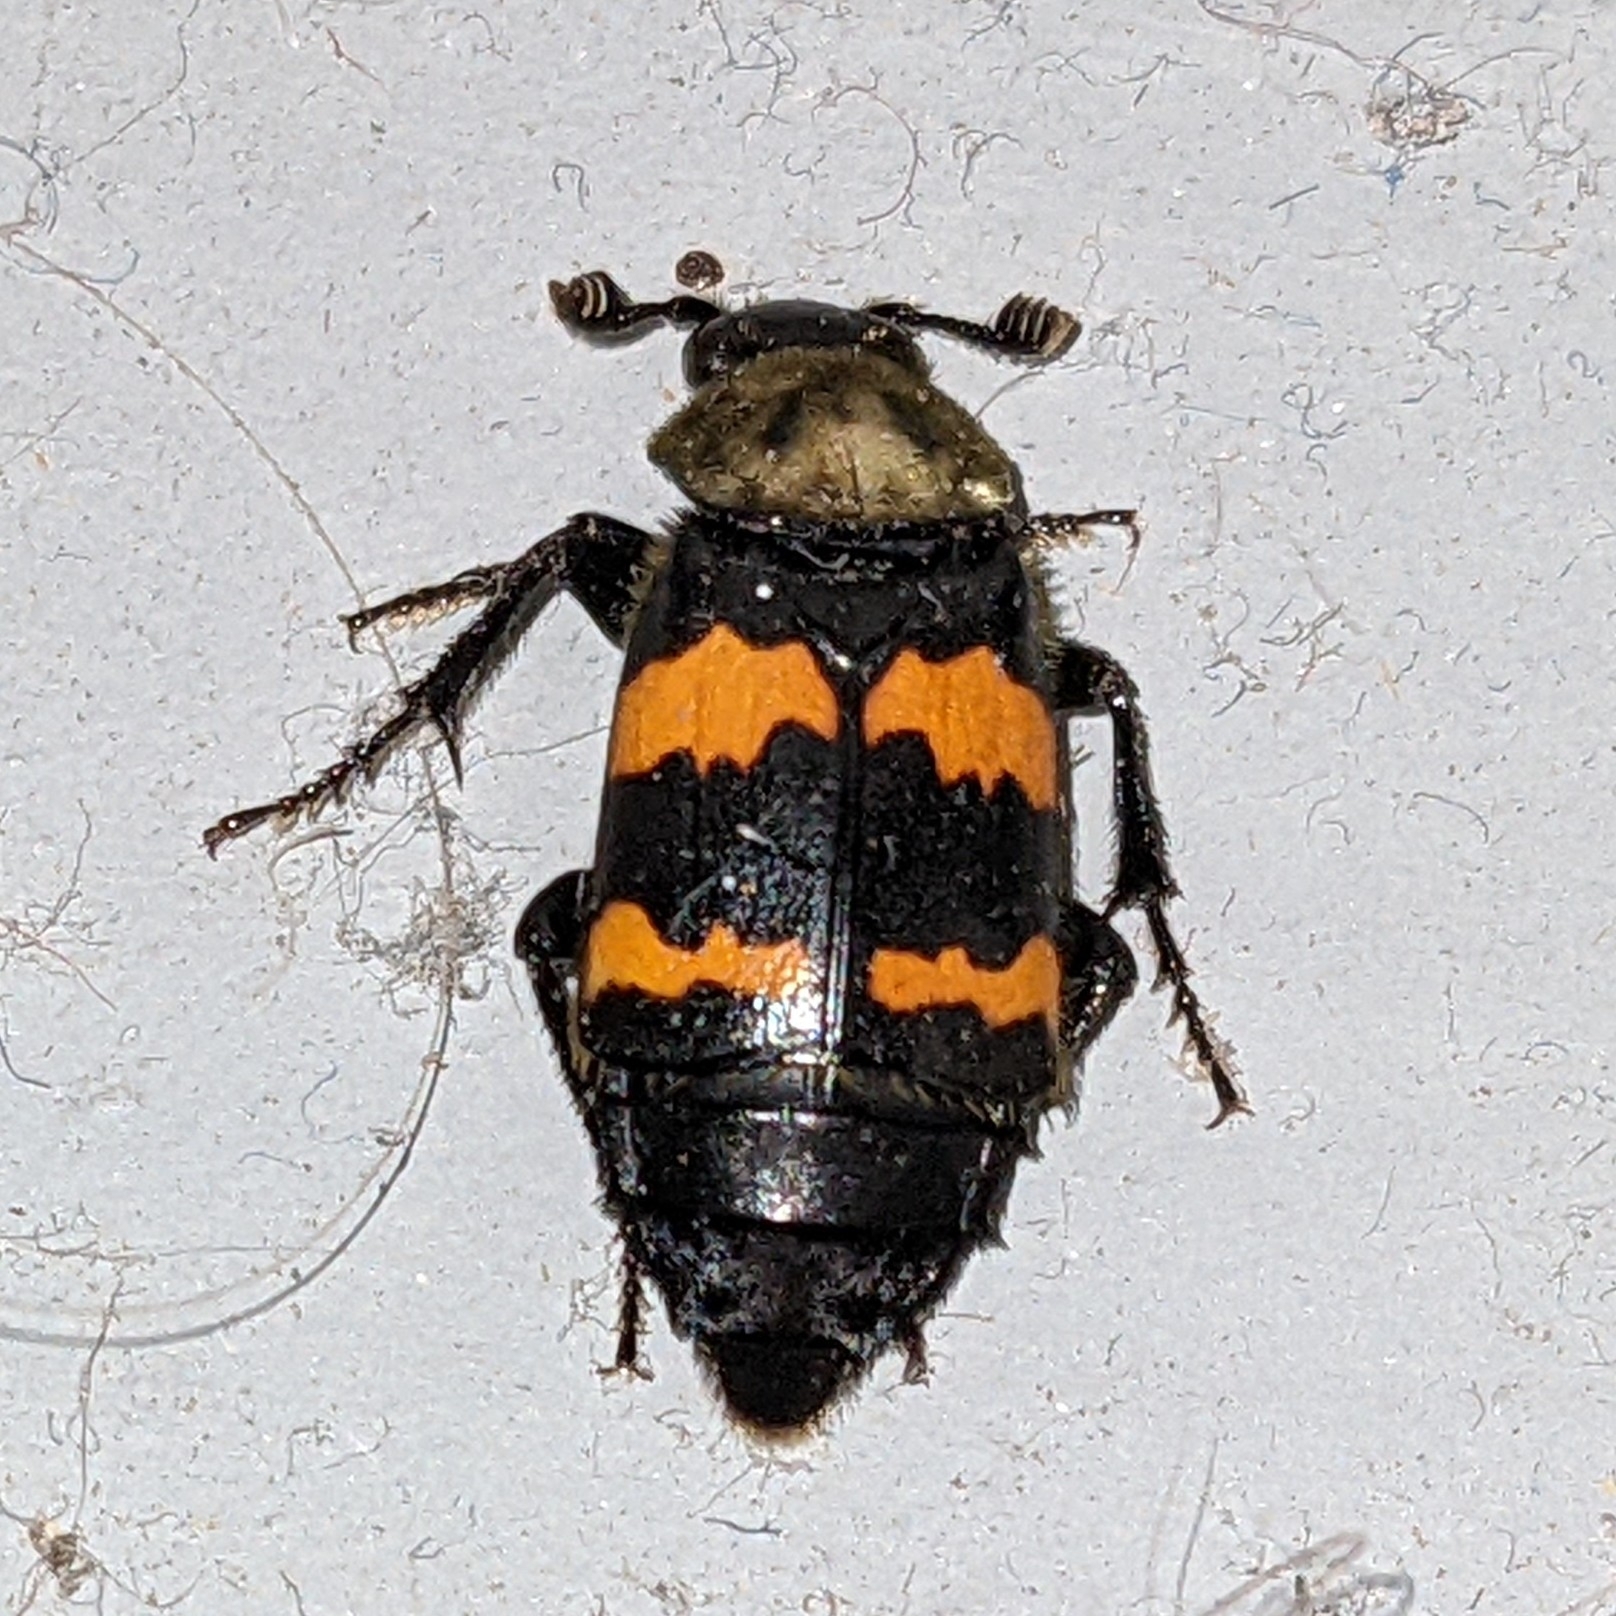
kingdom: Animalia
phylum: Arthropoda
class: Insecta
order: Coleoptera
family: Staphylinidae
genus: Nicrophorus
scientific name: Nicrophorus tomentosus
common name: Tomentose burying beetle
